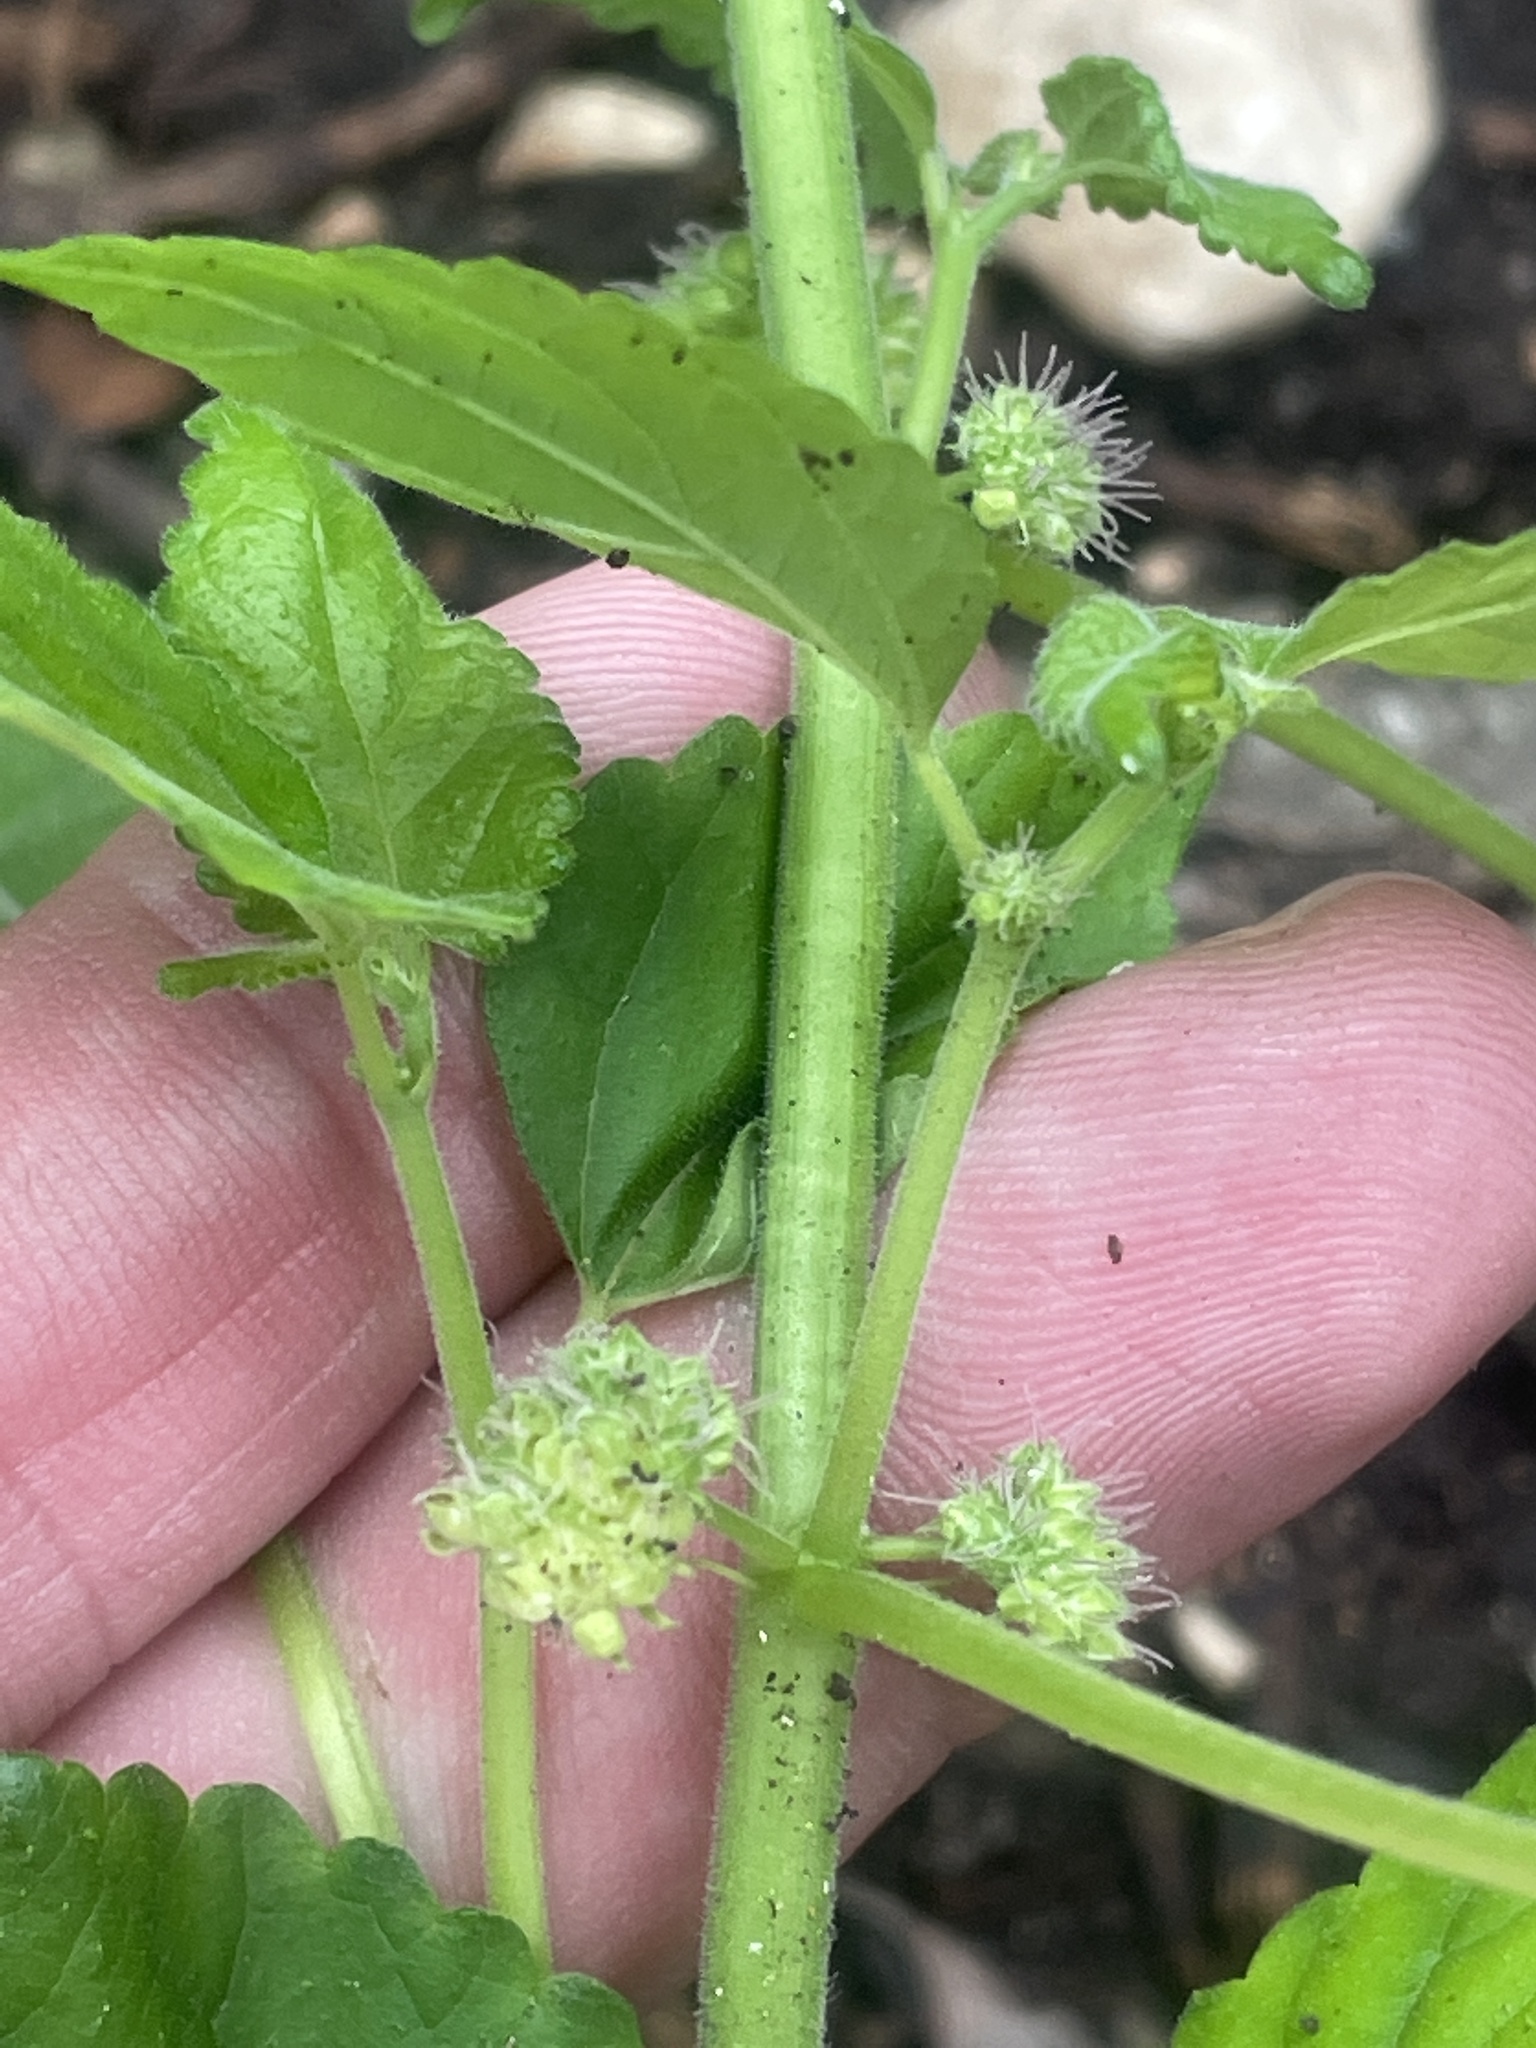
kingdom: Plantae
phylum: Tracheophyta
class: Magnoliopsida
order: Rosales
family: Moraceae
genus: Fatoua
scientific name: Fatoua villosa
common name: Hairy crabweed
